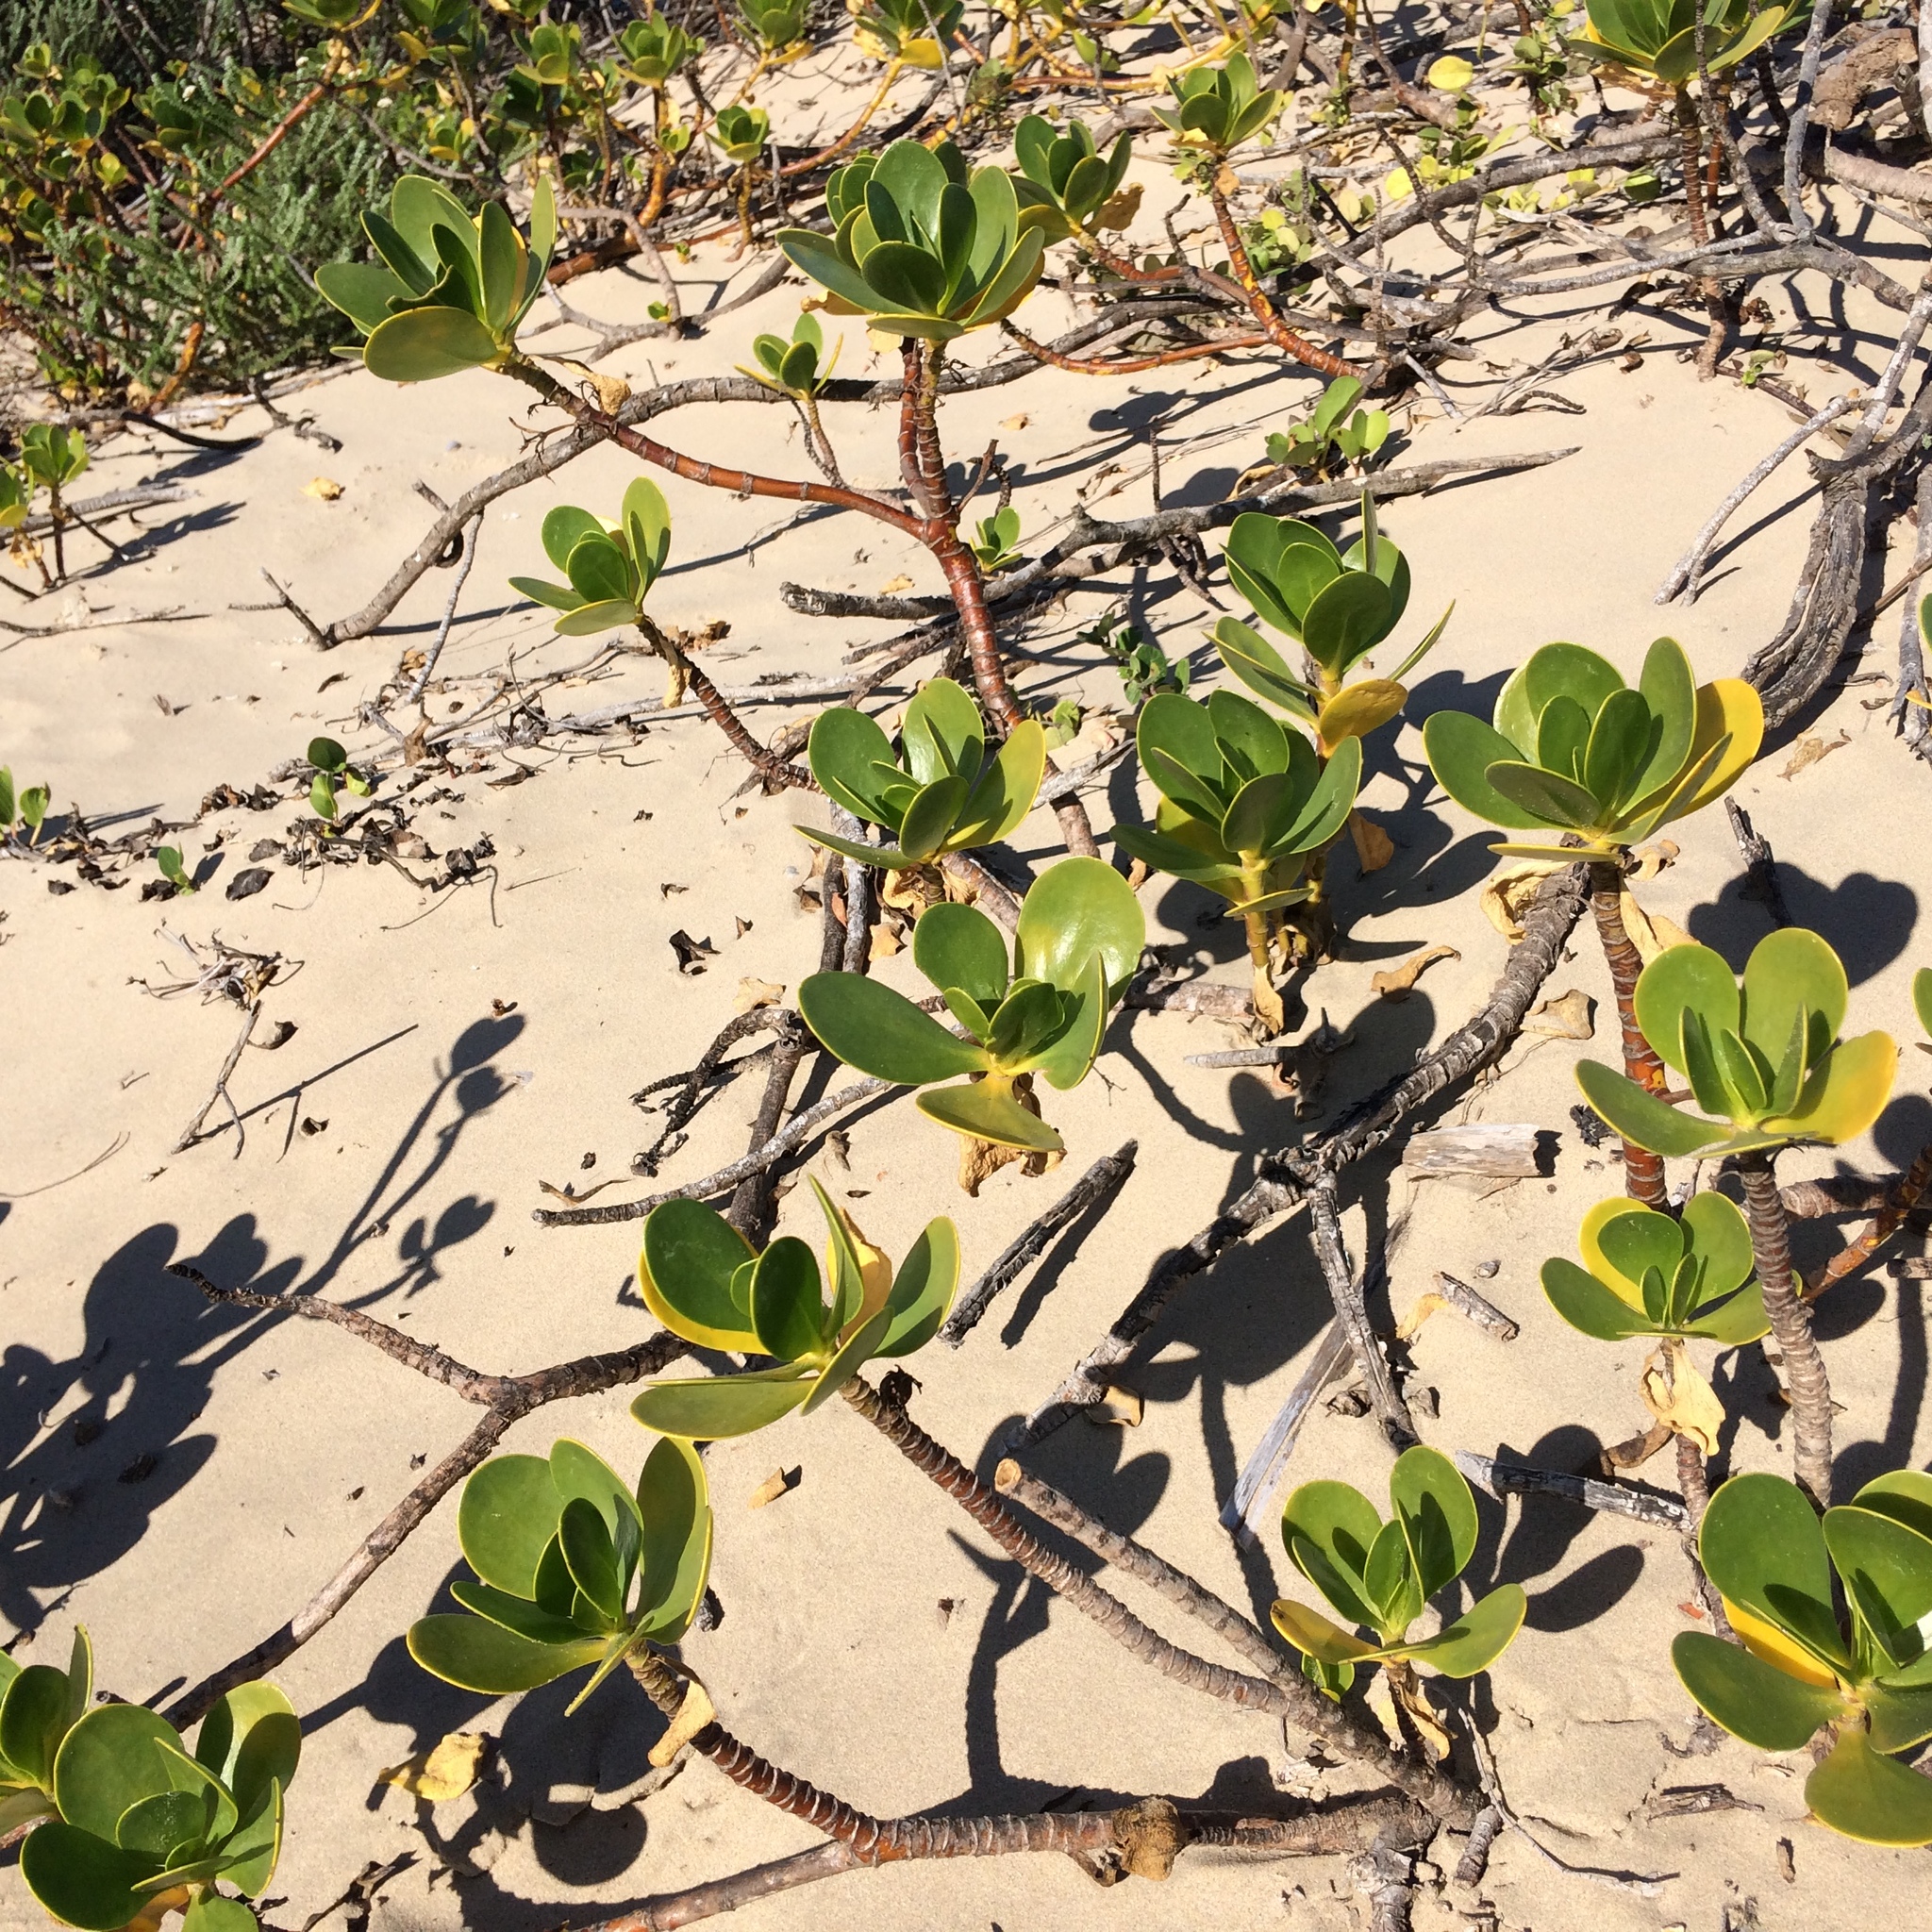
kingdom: Plantae
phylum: Tracheophyta
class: Magnoliopsida
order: Asterales
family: Goodeniaceae
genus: Scaevola
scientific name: Scaevola plumieri
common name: Gull feed
